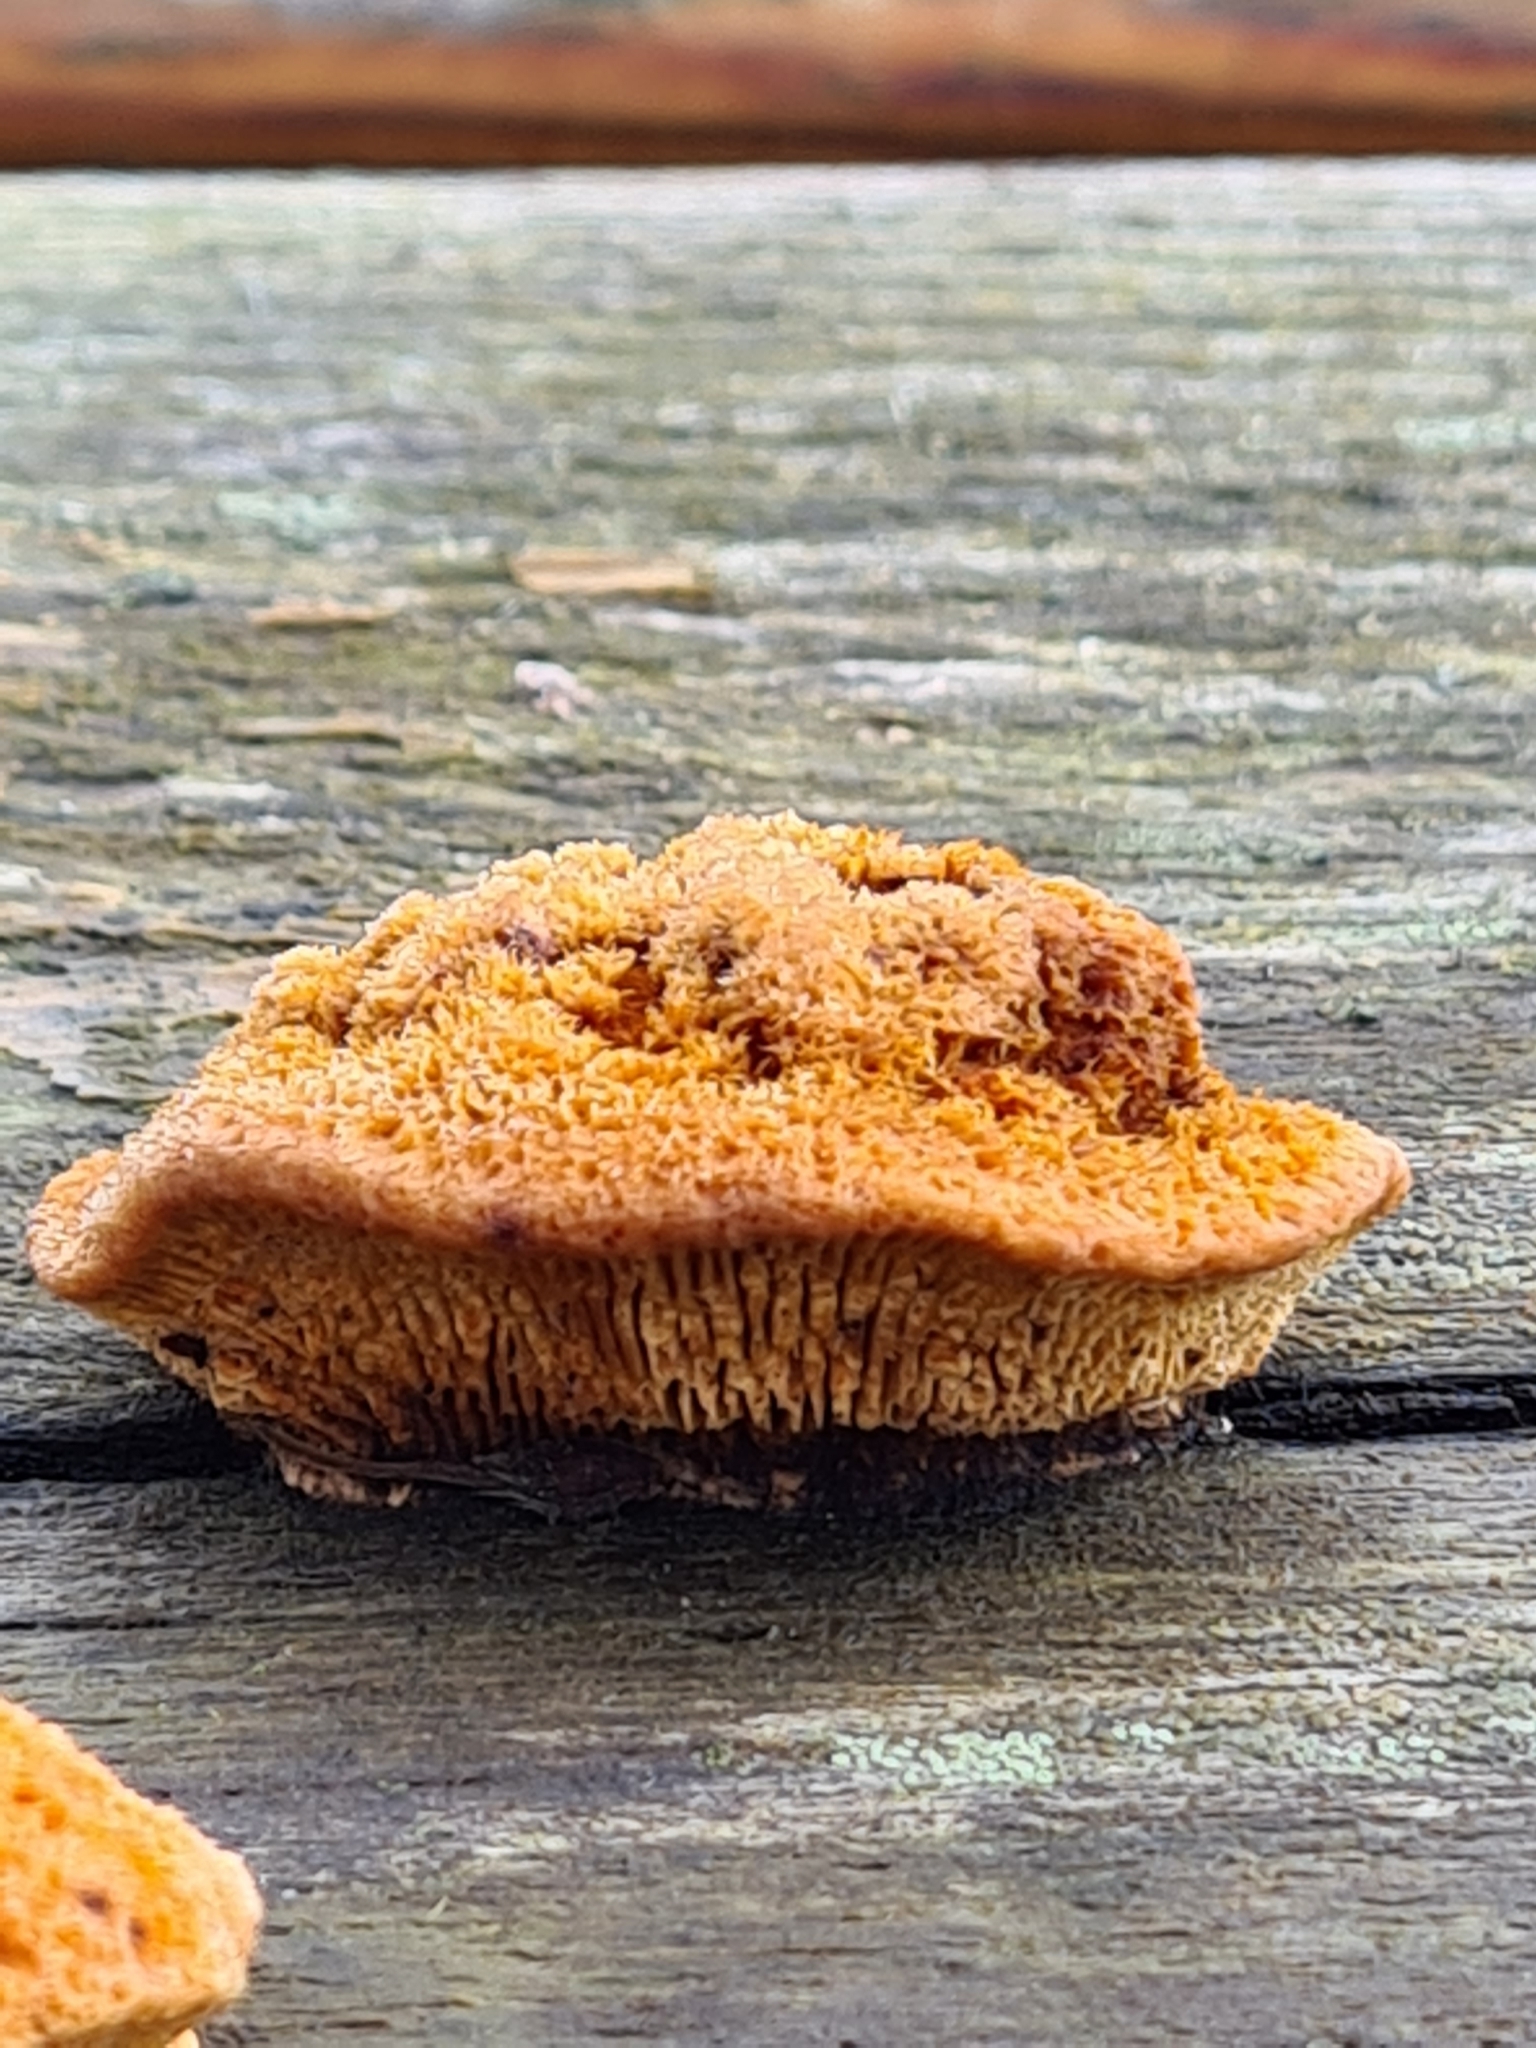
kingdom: Fungi
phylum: Basidiomycota
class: Agaricomycetes
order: Gloeophyllales
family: Gloeophyllaceae
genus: Gloeophyllum
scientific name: Gloeophyllum sepiarium
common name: Conifer mazegill
